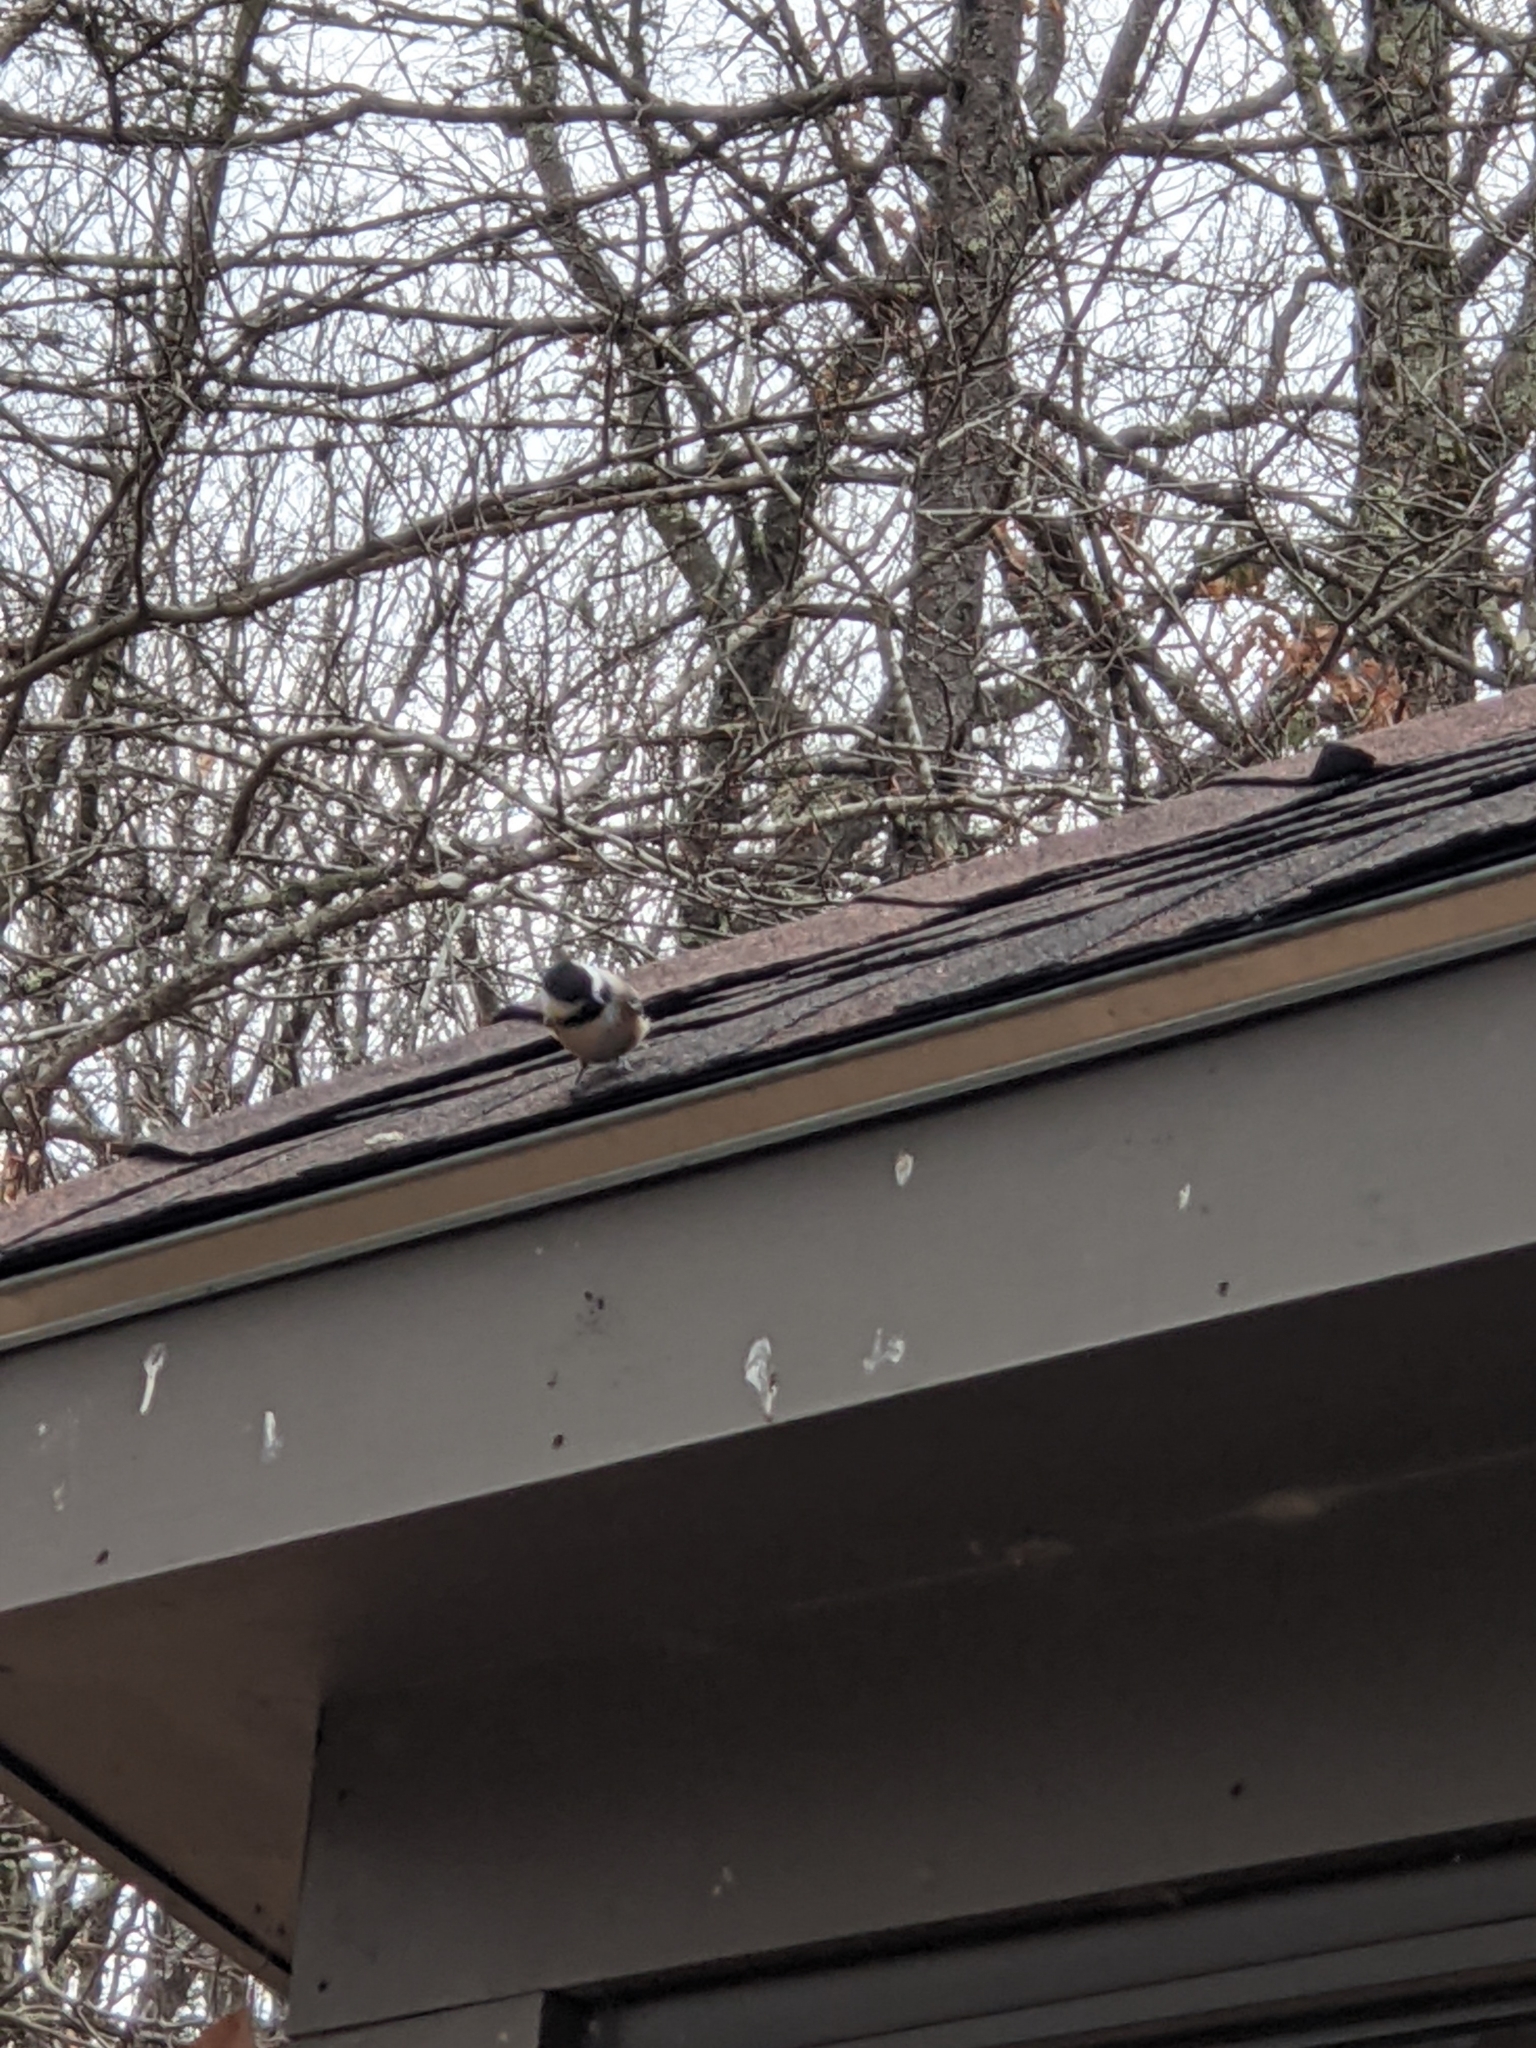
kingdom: Animalia
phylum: Chordata
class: Aves
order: Passeriformes
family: Paridae
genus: Poecile
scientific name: Poecile atricapillus
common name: Black-capped chickadee
